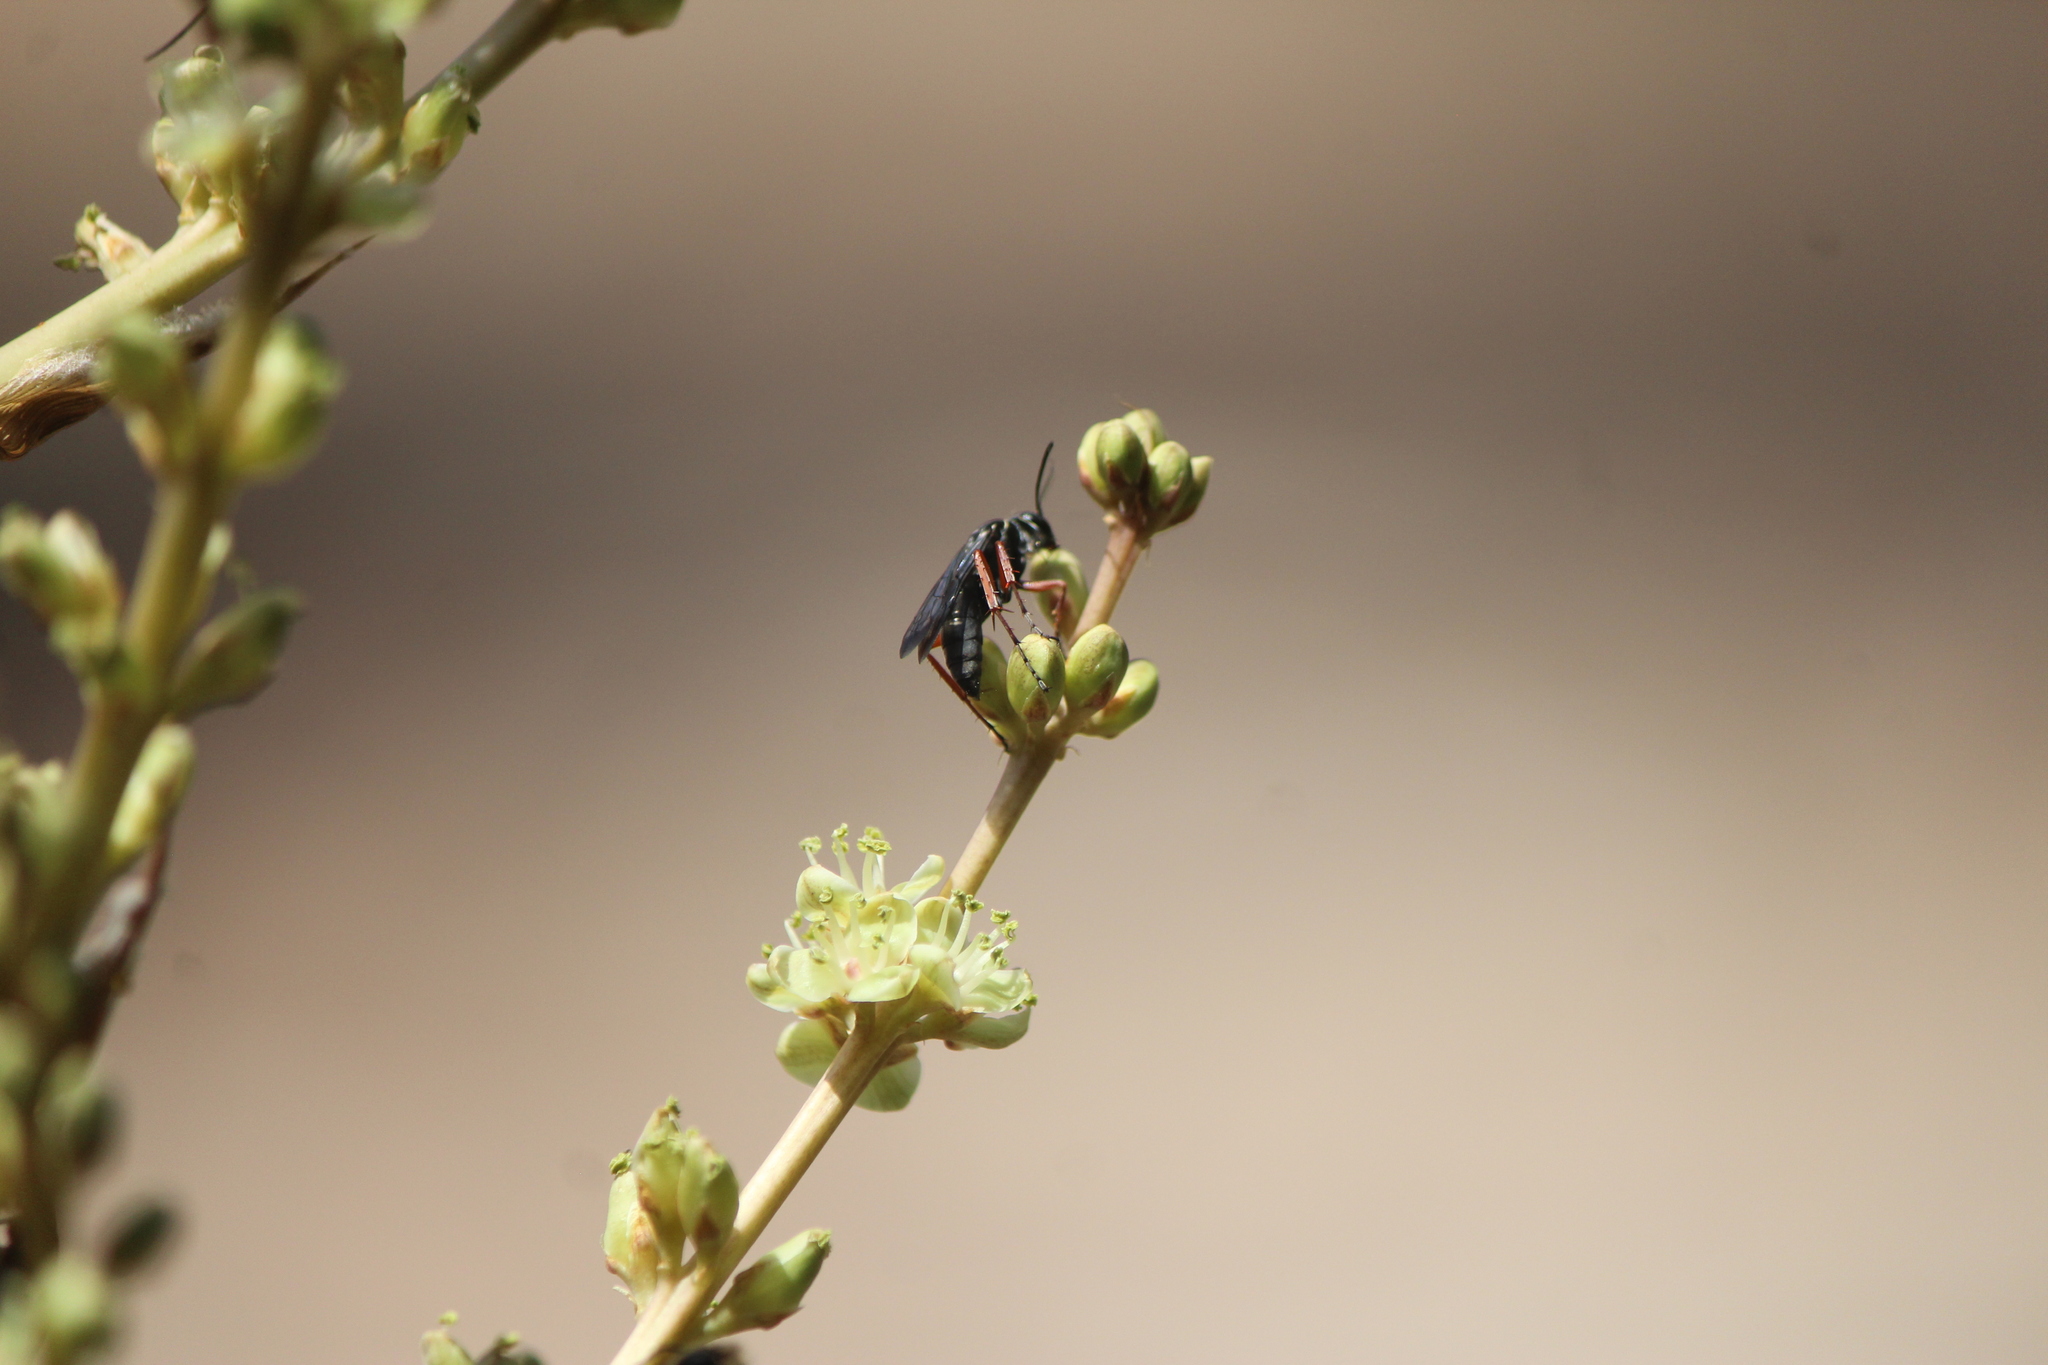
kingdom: Animalia
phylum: Arthropoda
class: Insecta
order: Hymenoptera
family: Pompilidae
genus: Episyron
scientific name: Episyron conterminus
